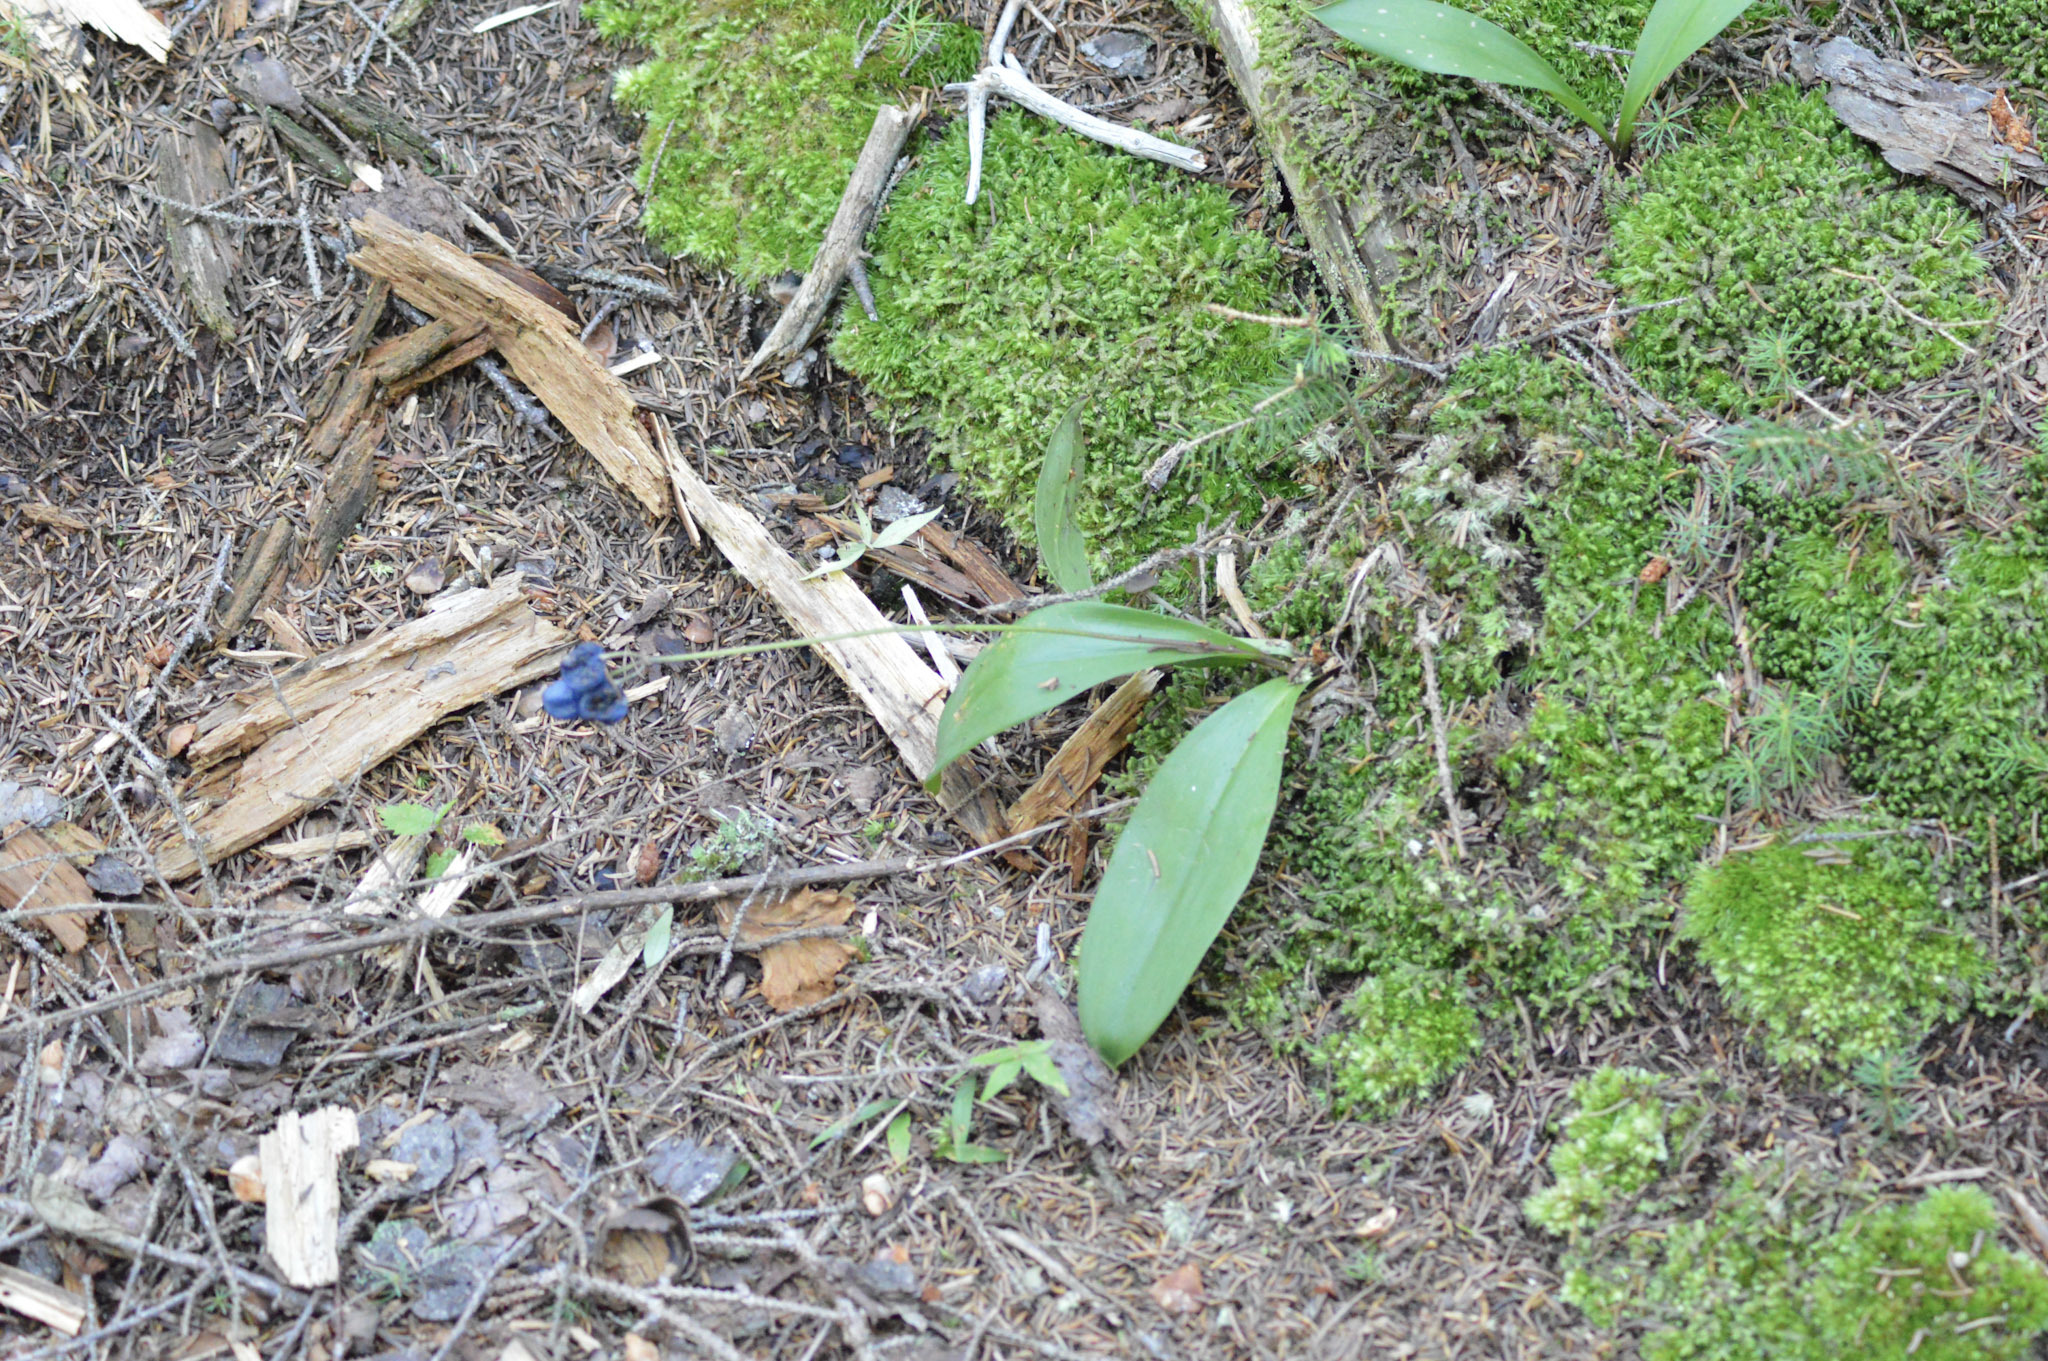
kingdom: Plantae
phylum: Tracheophyta
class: Liliopsida
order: Liliales
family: Liliaceae
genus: Clintonia
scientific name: Clintonia borealis
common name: Yellow clintonia
